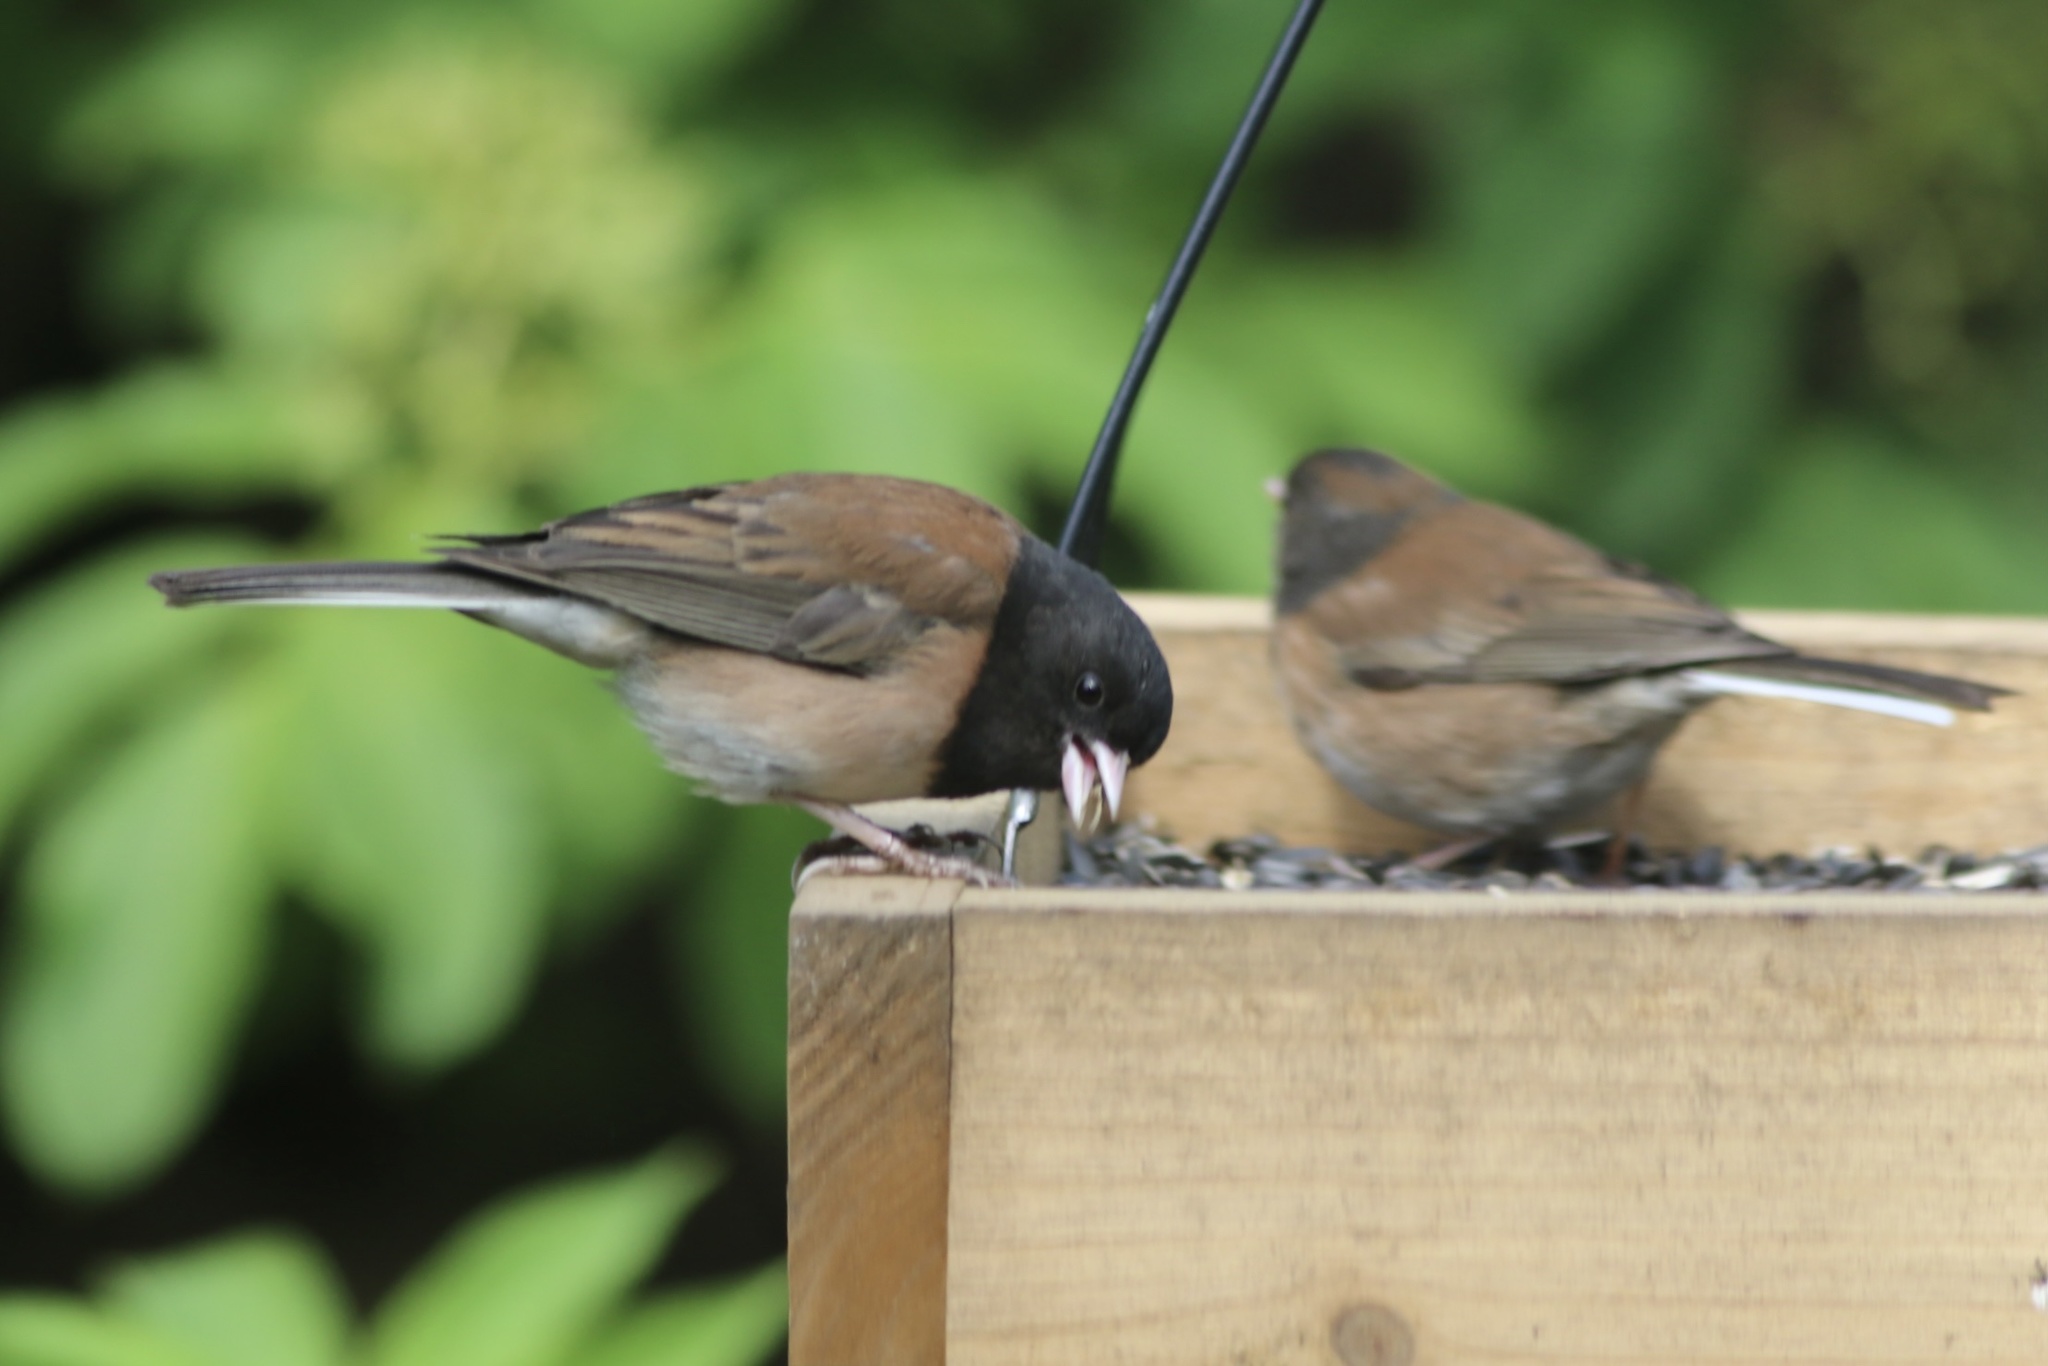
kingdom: Animalia
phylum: Chordata
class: Aves
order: Passeriformes
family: Passerellidae
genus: Junco
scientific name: Junco hyemalis
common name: Dark-eyed junco
